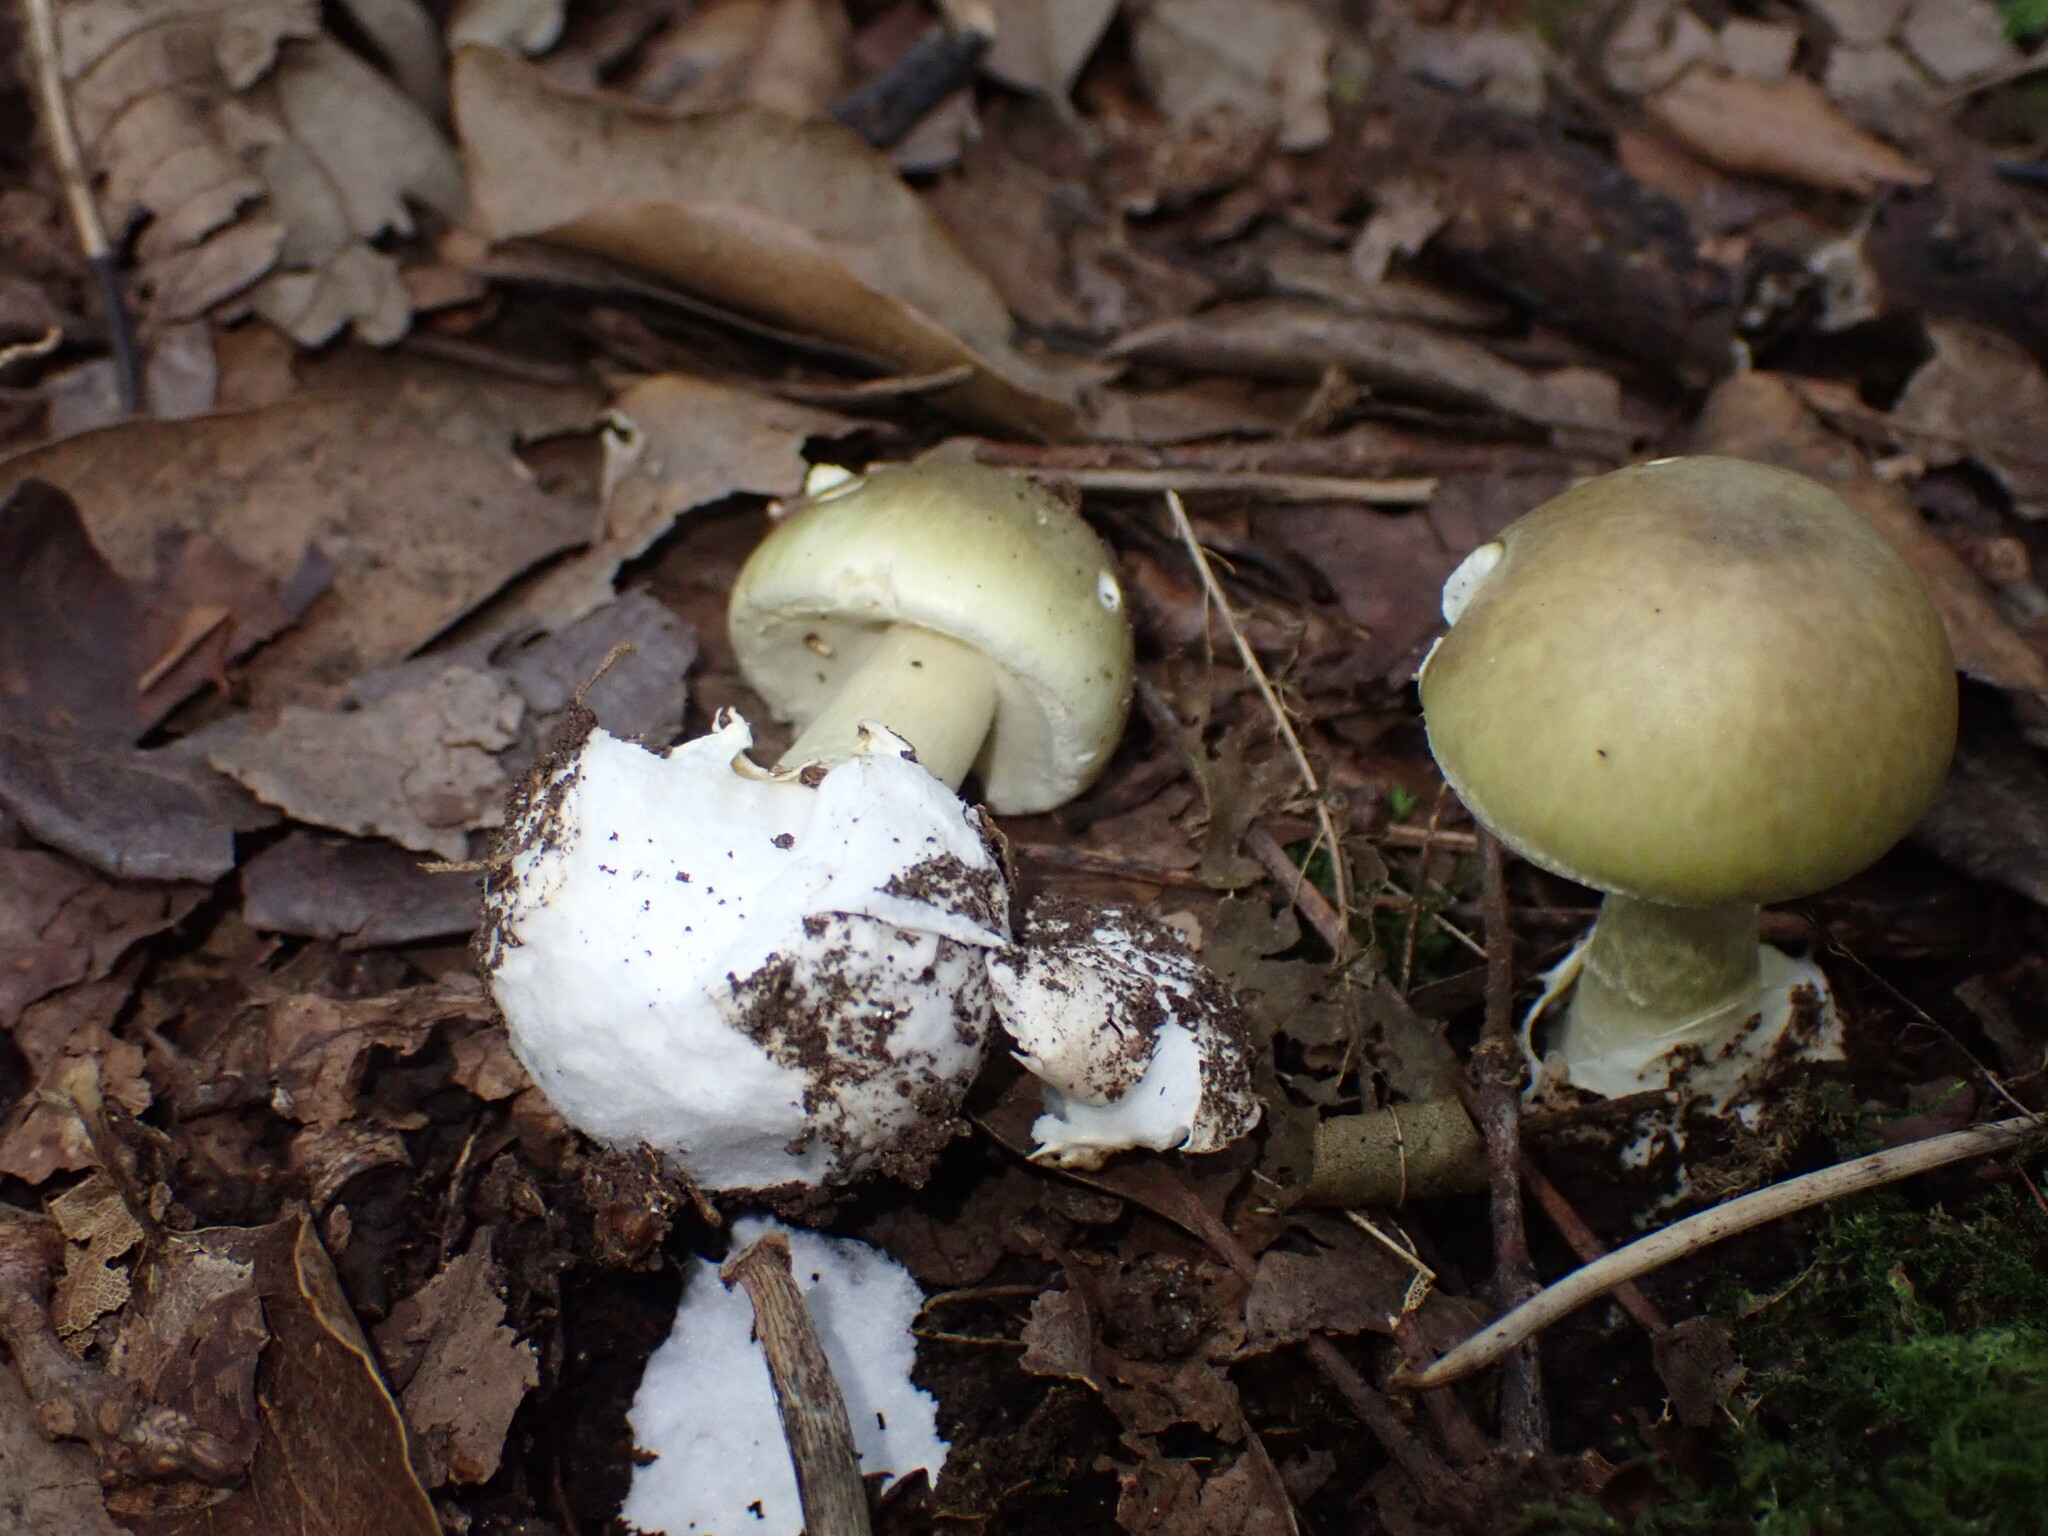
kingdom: Fungi
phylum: Basidiomycota
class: Agaricomycetes
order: Agaricales
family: Amanitaceae
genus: Amanita
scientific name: Amanita phalloides
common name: Death cap
